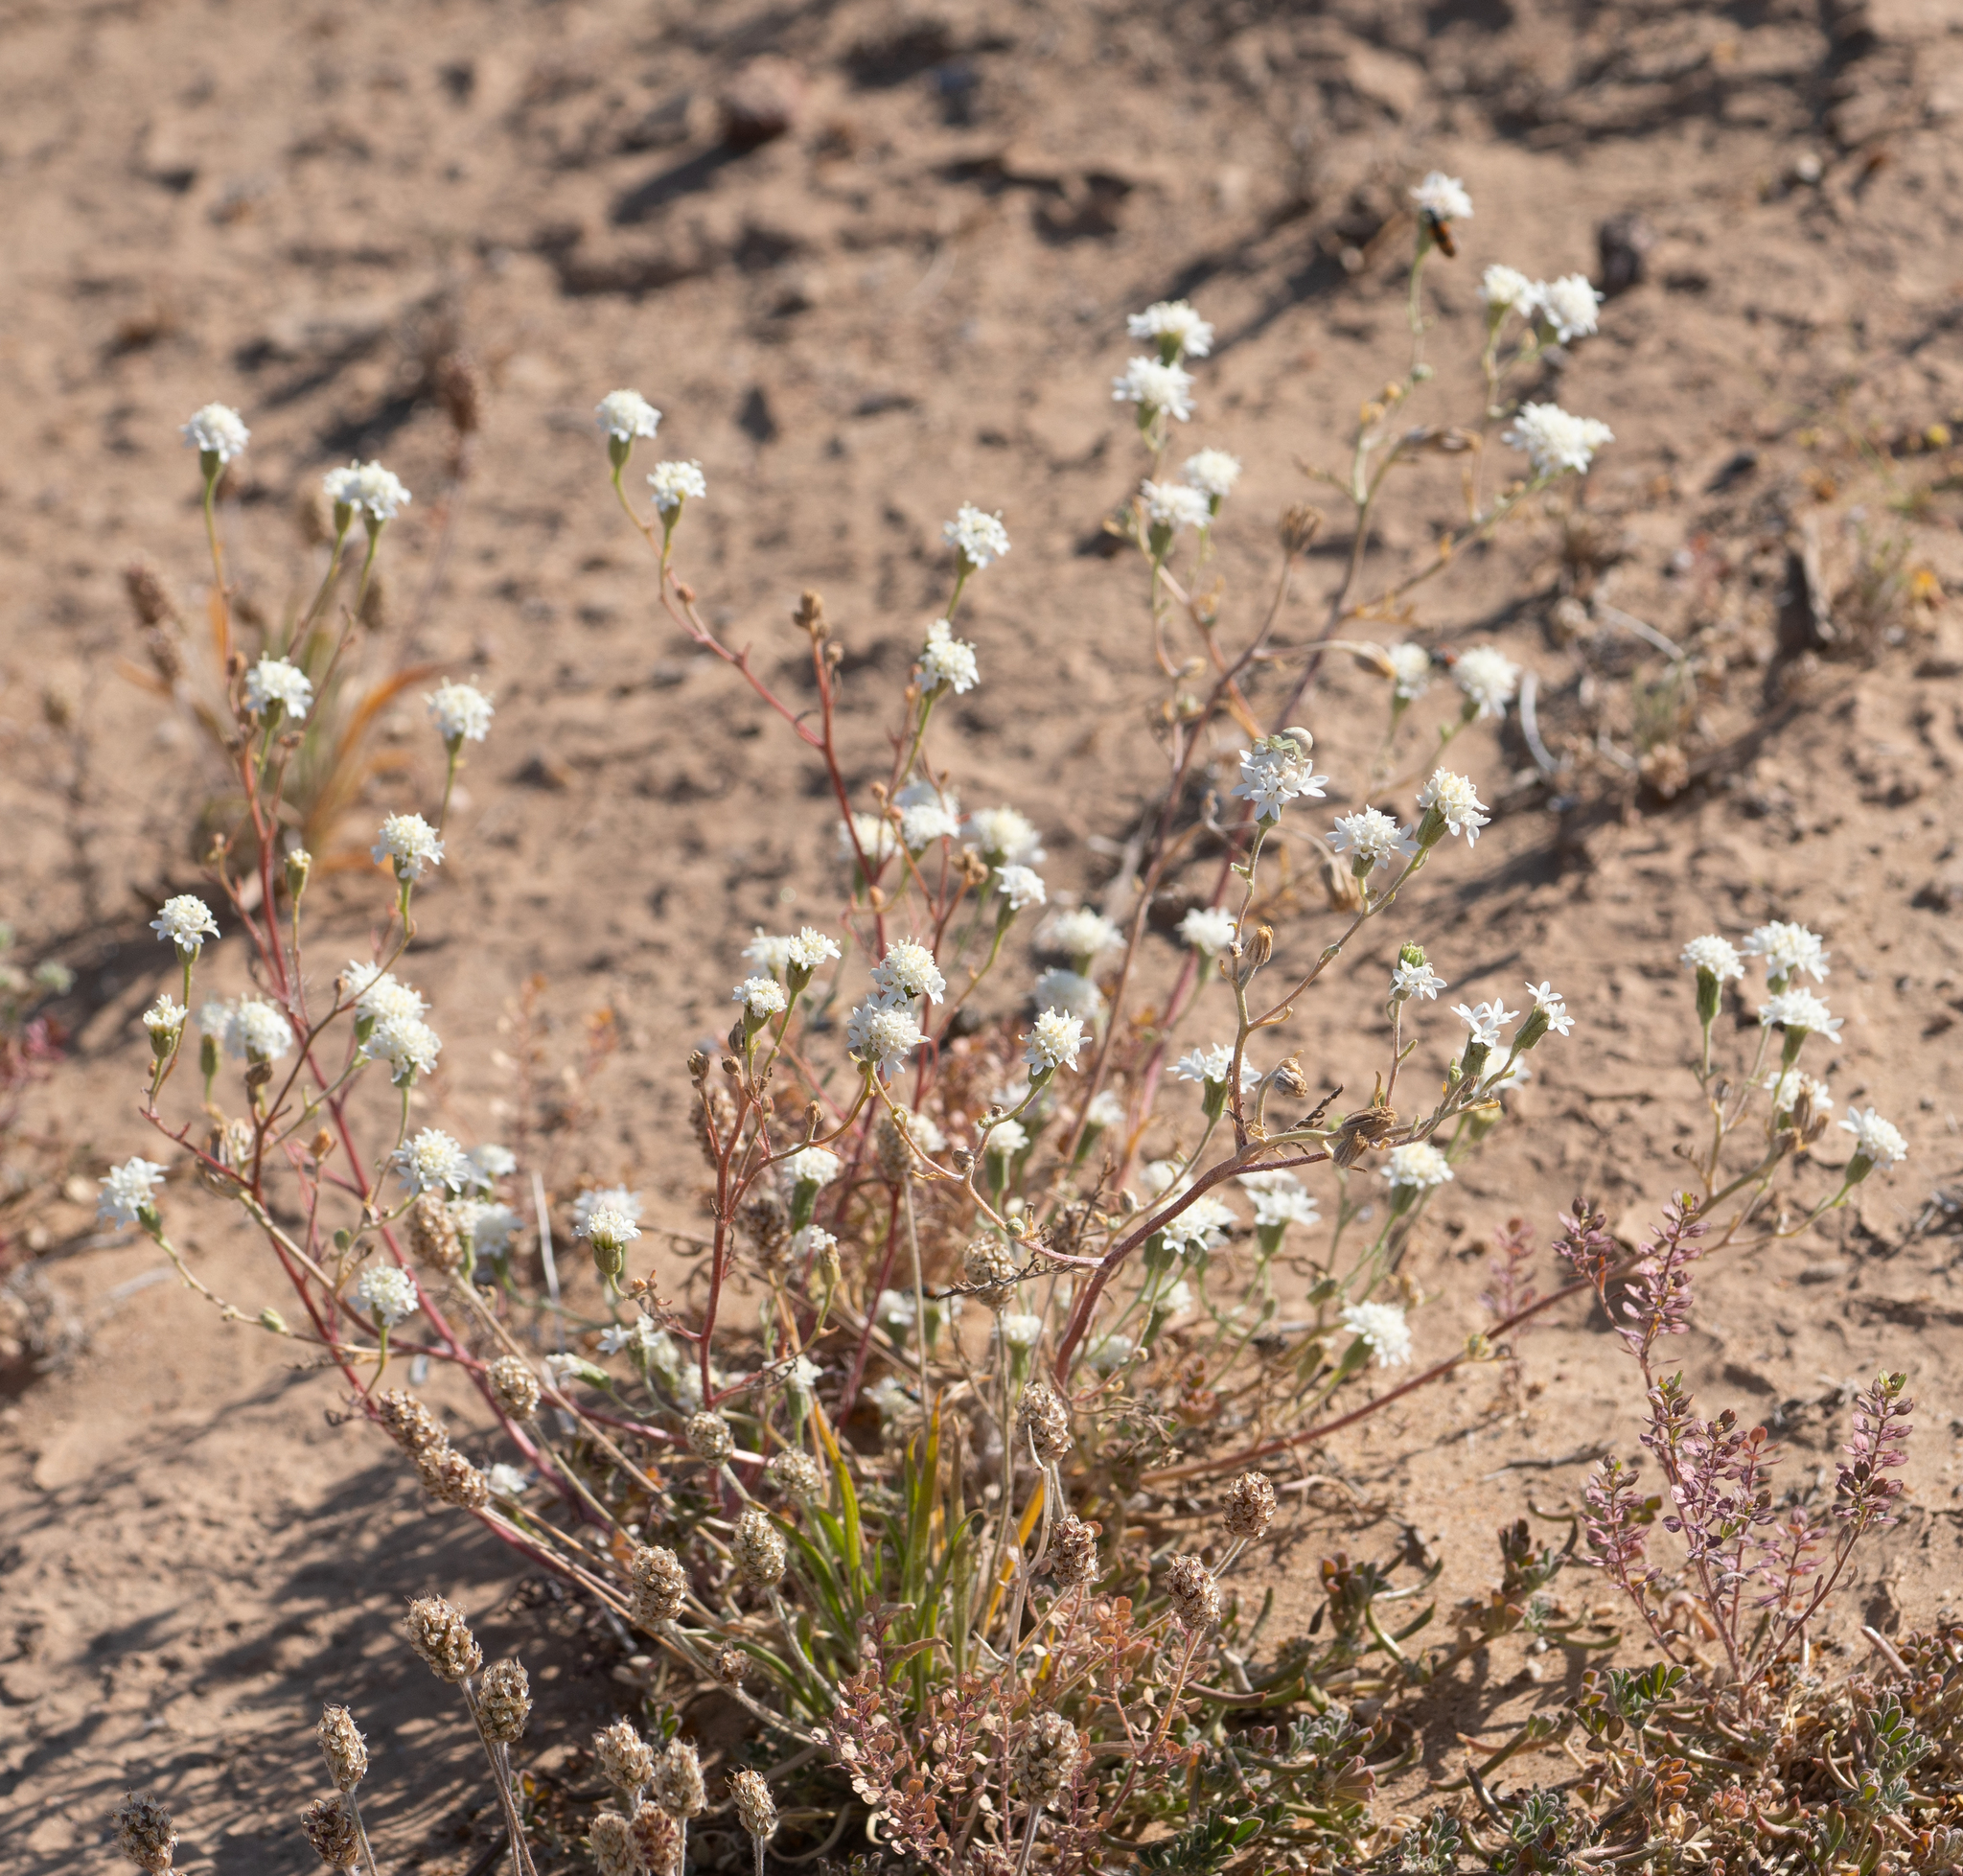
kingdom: Plantae
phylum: Tracheophyta
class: Magnoliopsida
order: Asterales
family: Asteraceae
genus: Chaenactis
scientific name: Chaenactis stevioides
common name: Desert pincushion
